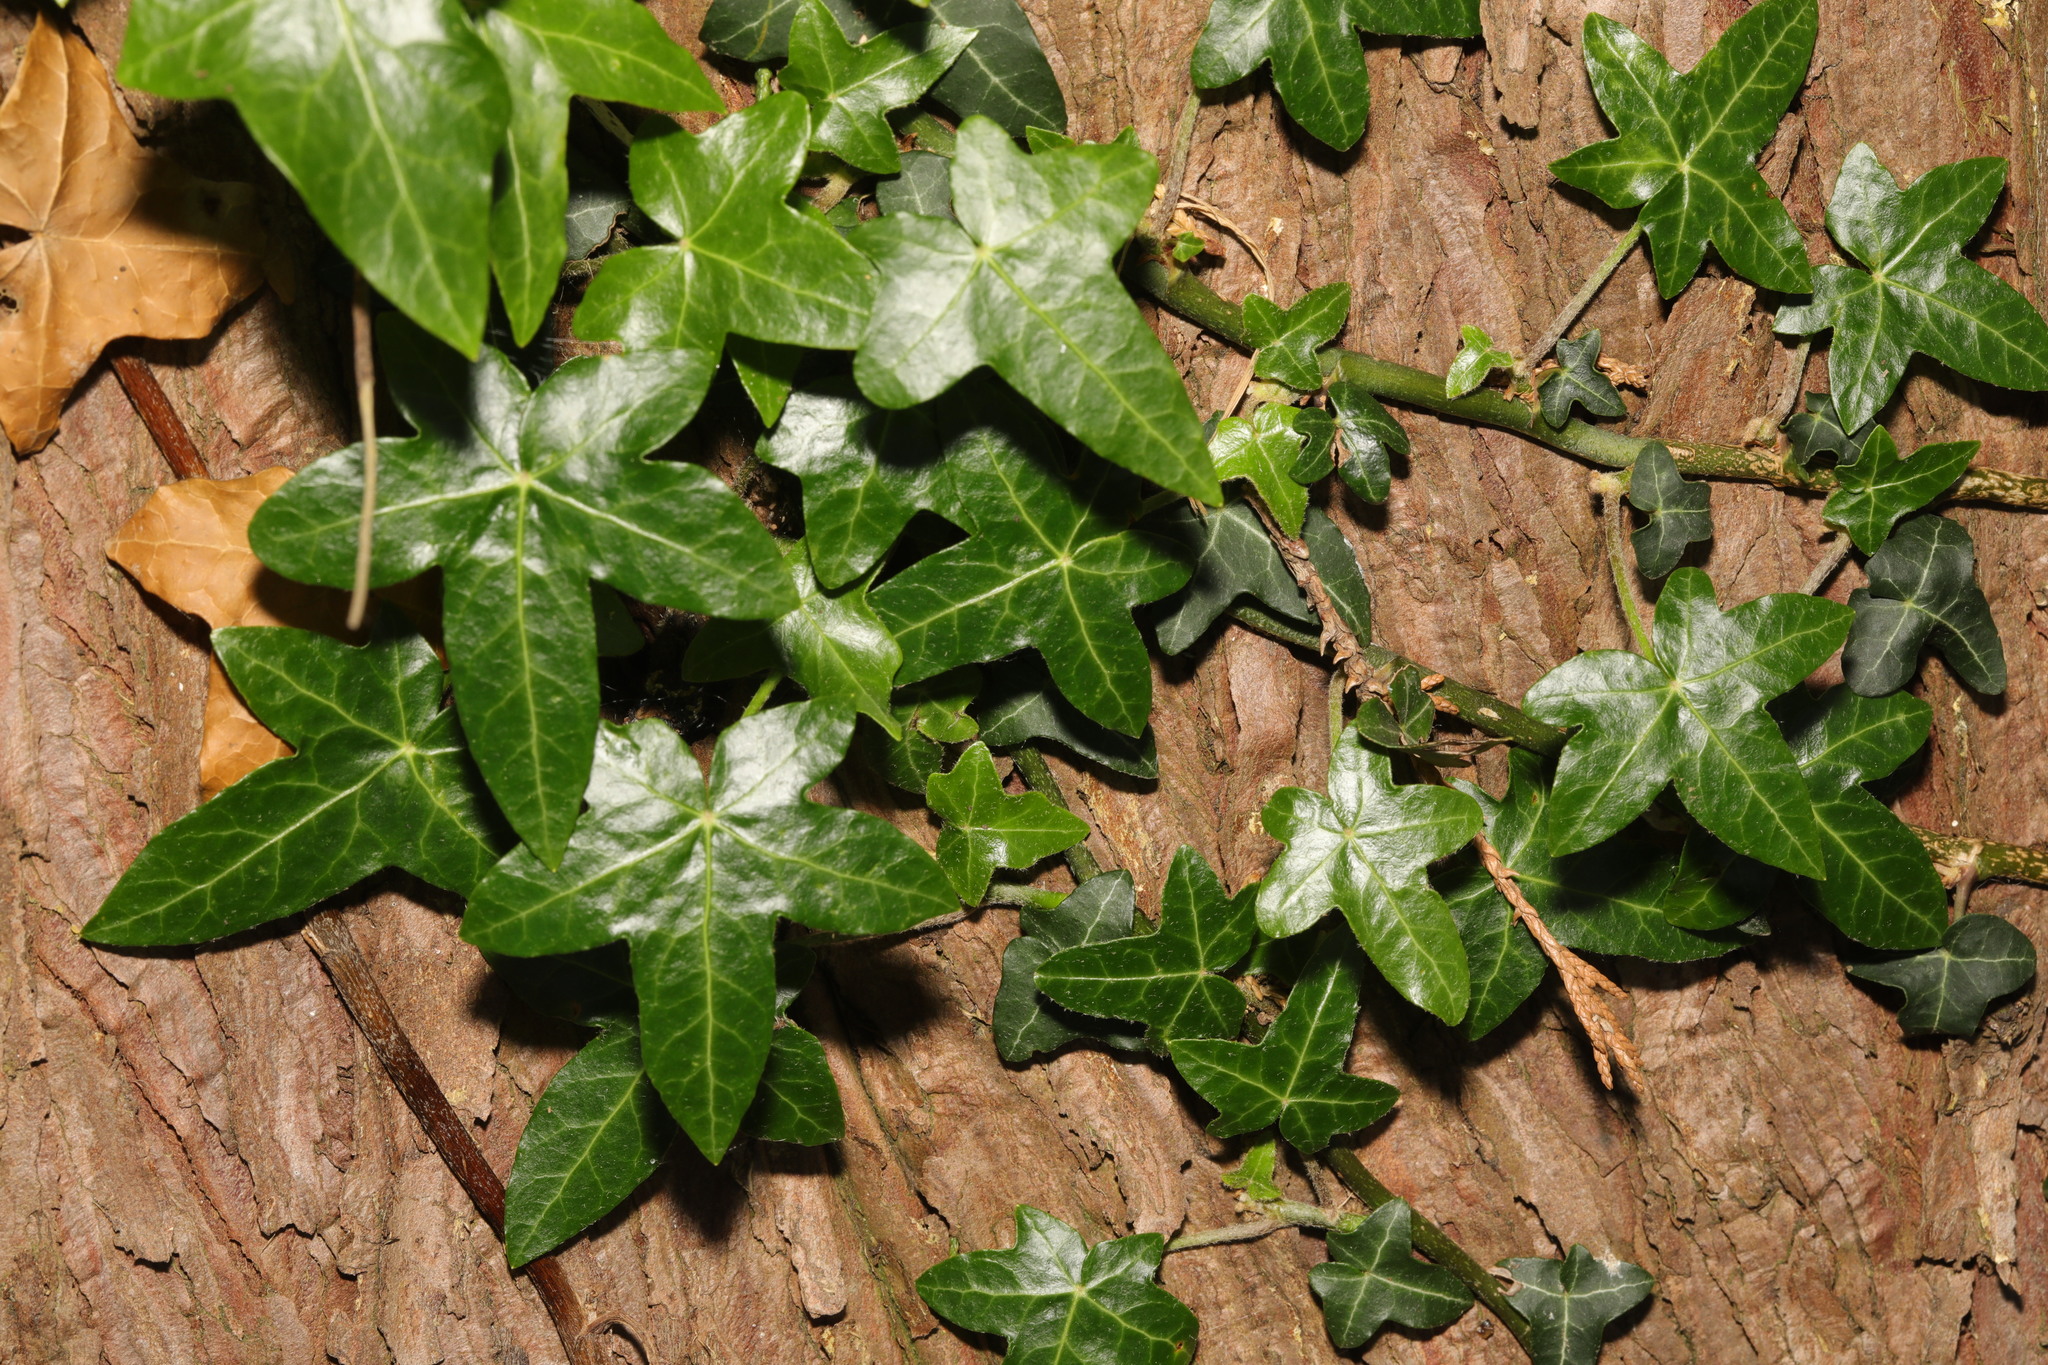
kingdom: Plantae
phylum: Tracheophyta
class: Magnoliopsida
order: Apiales
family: Araliaceae
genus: Hedera
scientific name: Hedera helix
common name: Ivy
